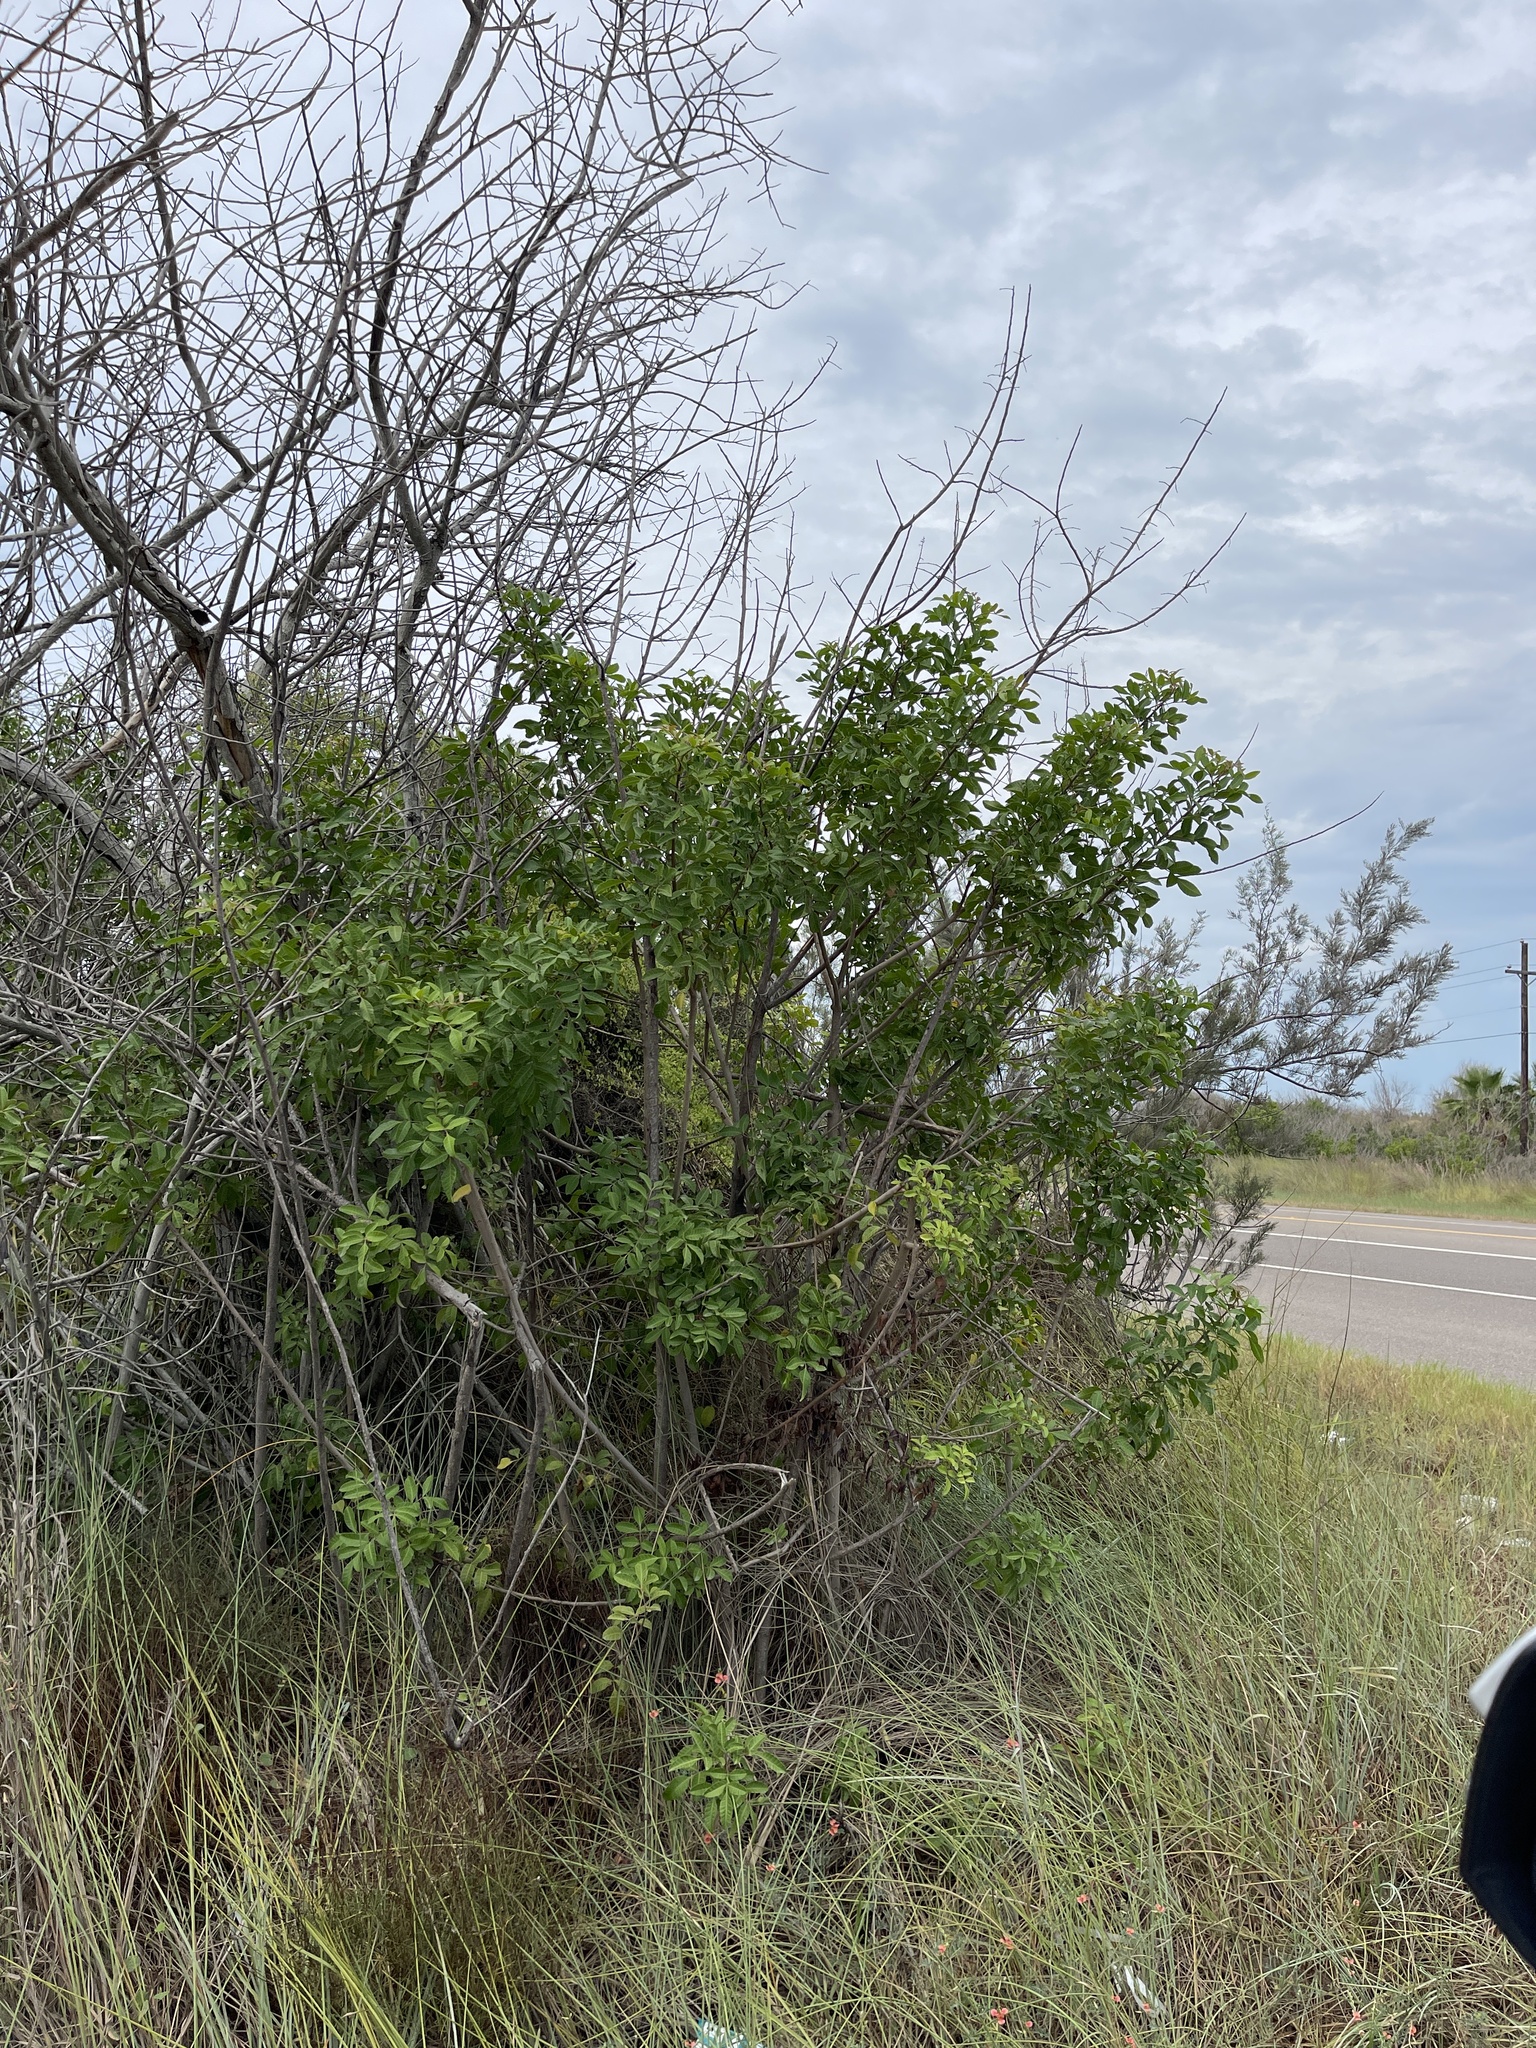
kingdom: Plantae
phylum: Tracheophyta
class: Magnoliopsida
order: Sapindales
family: Anacardiaceae
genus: Schinus
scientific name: Schinus terebinthifolia
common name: Brazilian peppertree
